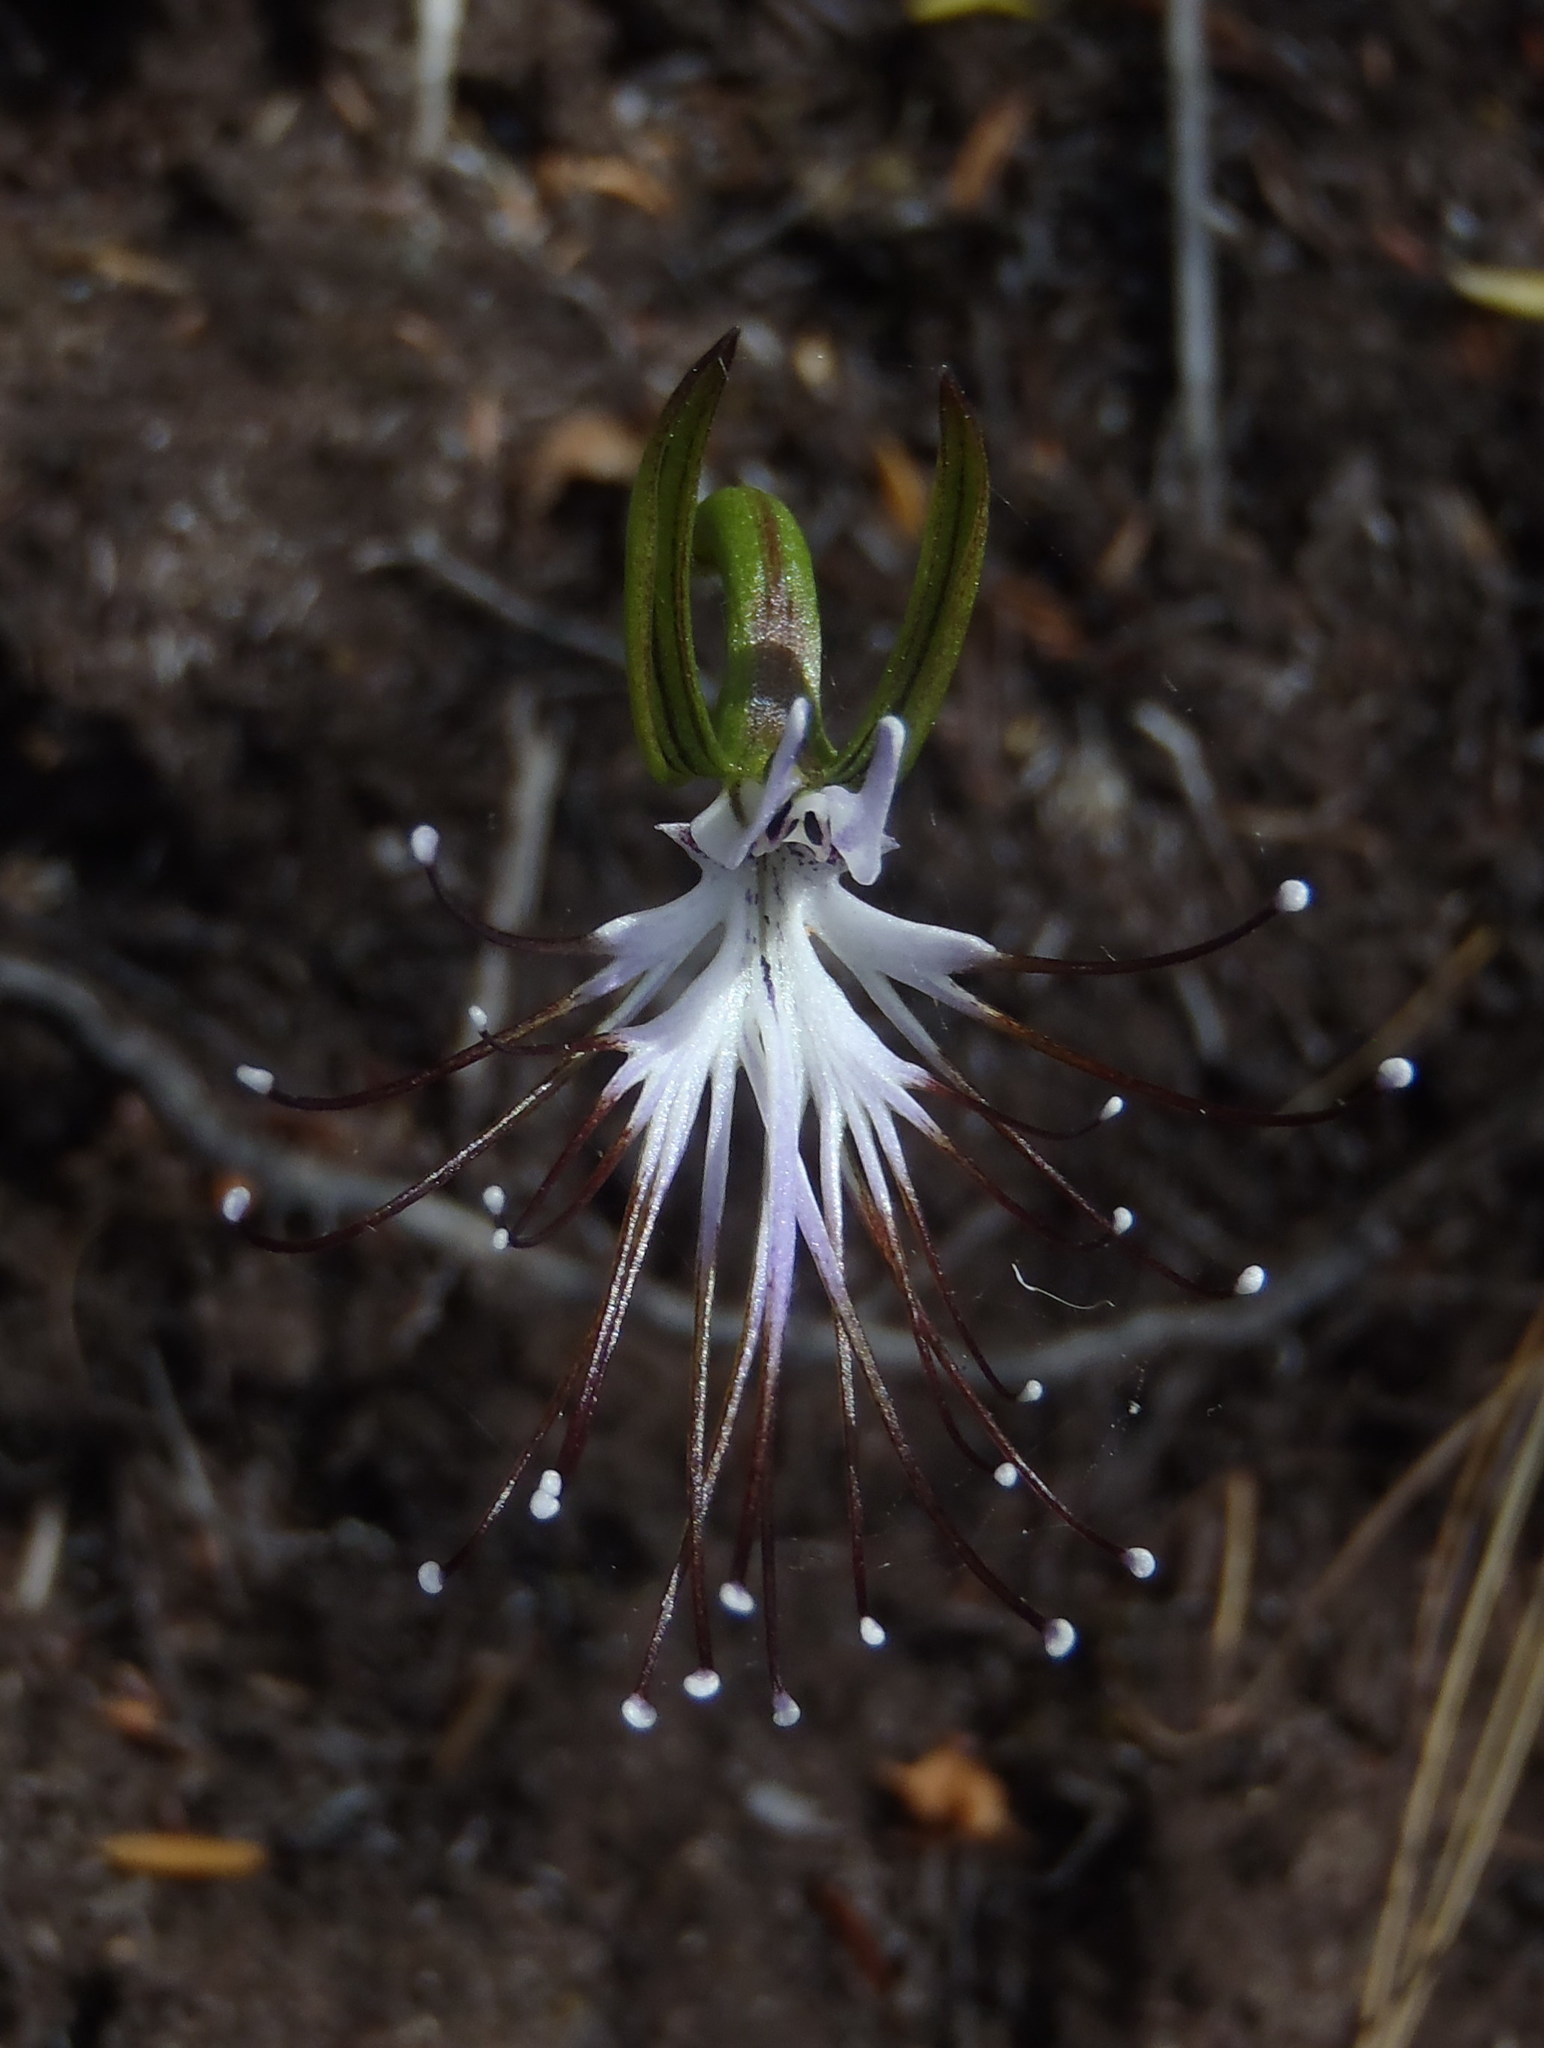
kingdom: Plantae
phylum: Tracheophyta
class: Liliopsida
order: Asparagales
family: Orchidaceae
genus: Holothrix
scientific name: Holothrix etheliae
